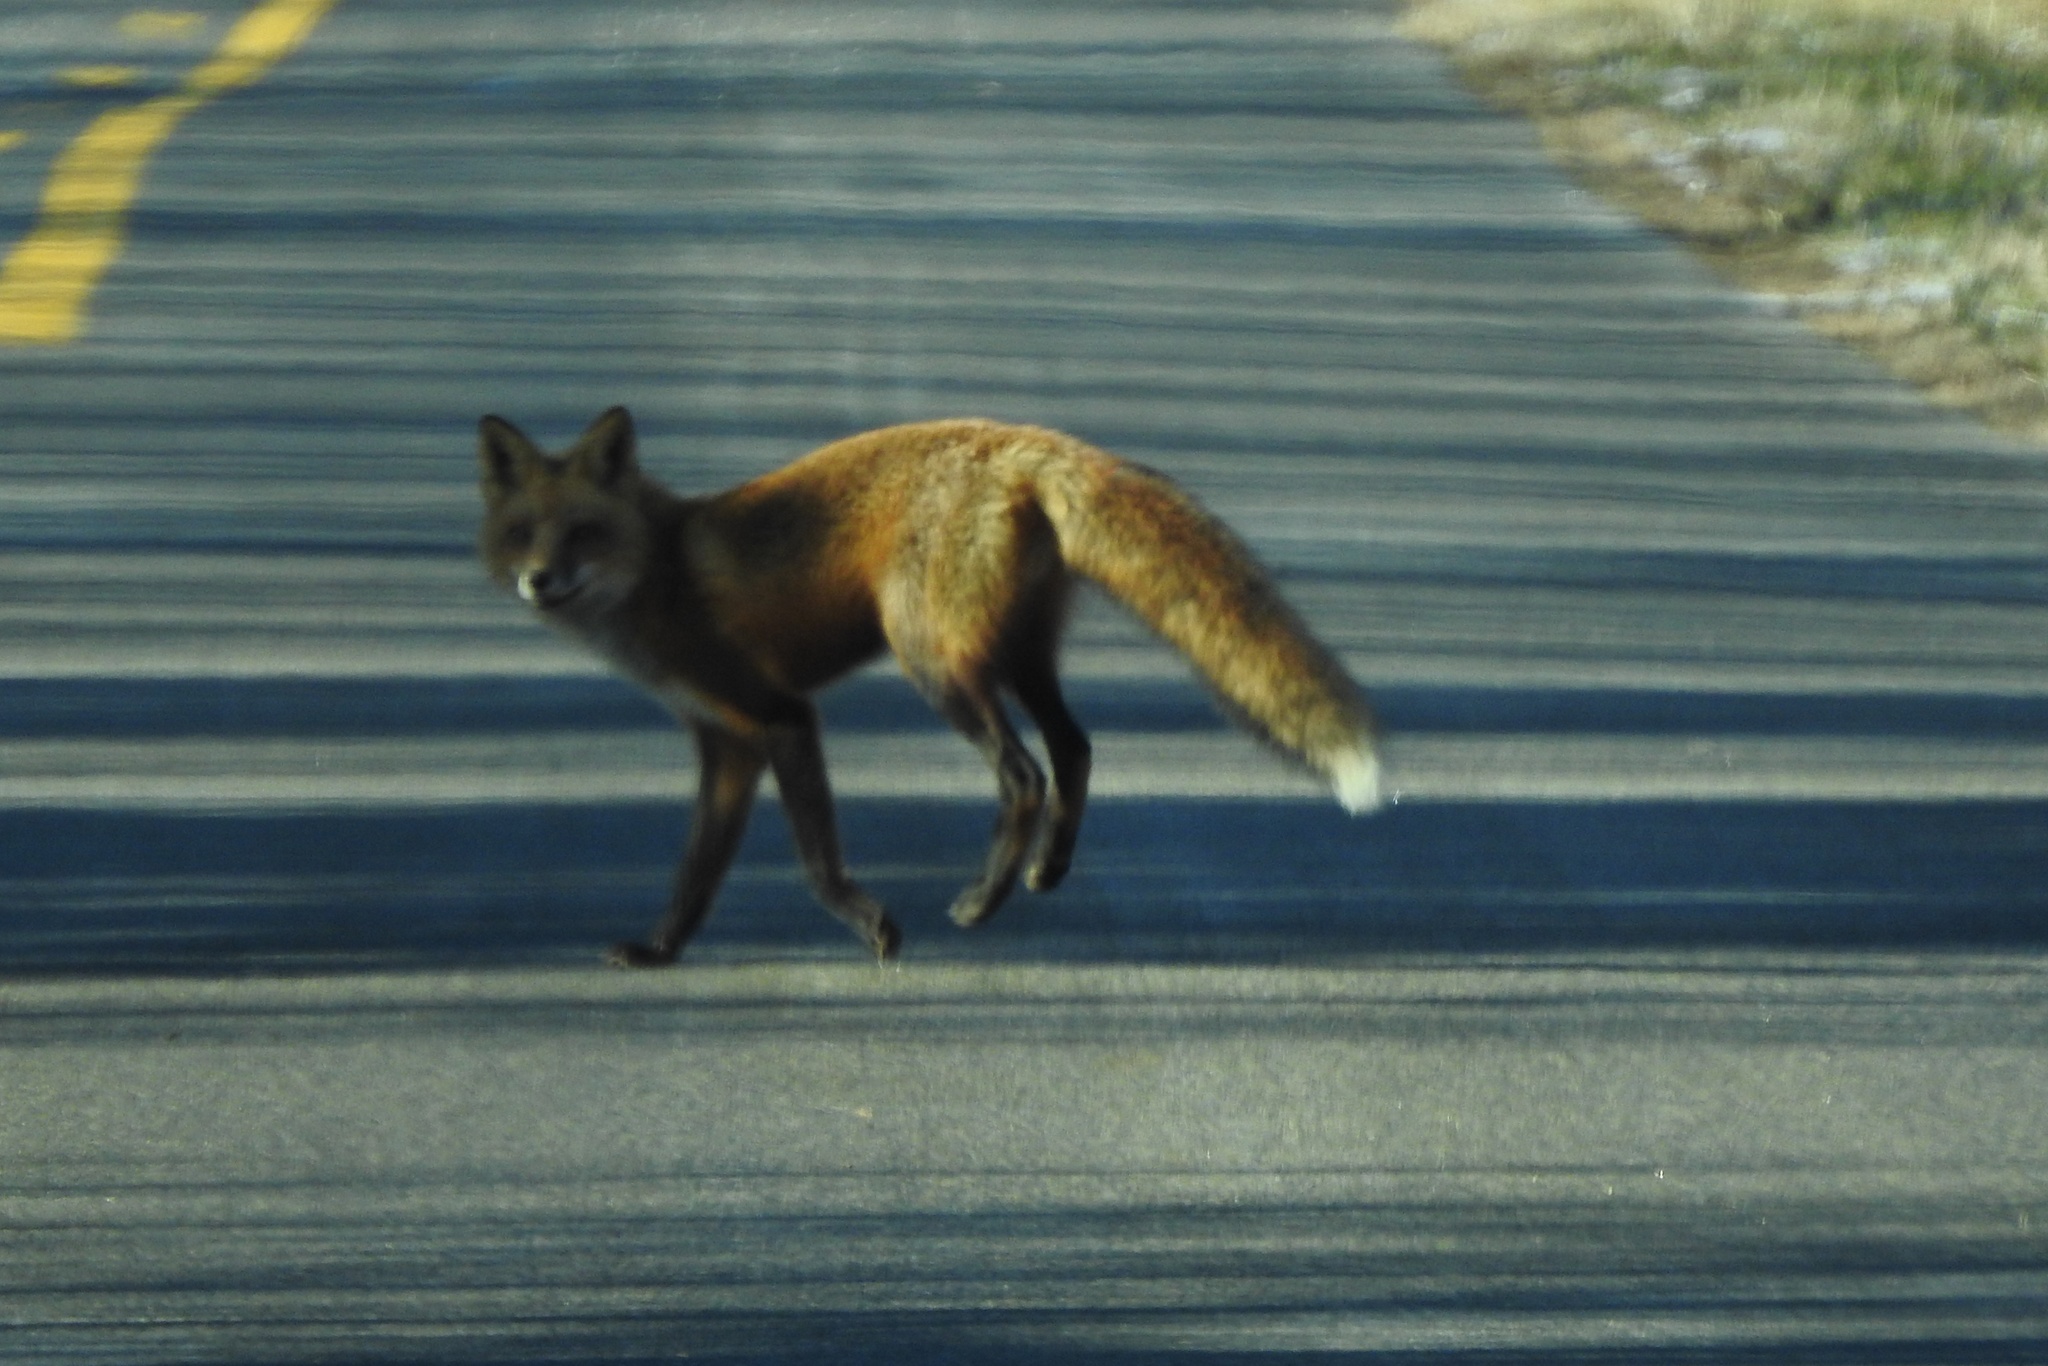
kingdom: Animalia
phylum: Chordata
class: Mammalia
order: Carnivora
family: Canidae
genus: Vulpes
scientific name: Vulpes vulpes
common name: Red fox
